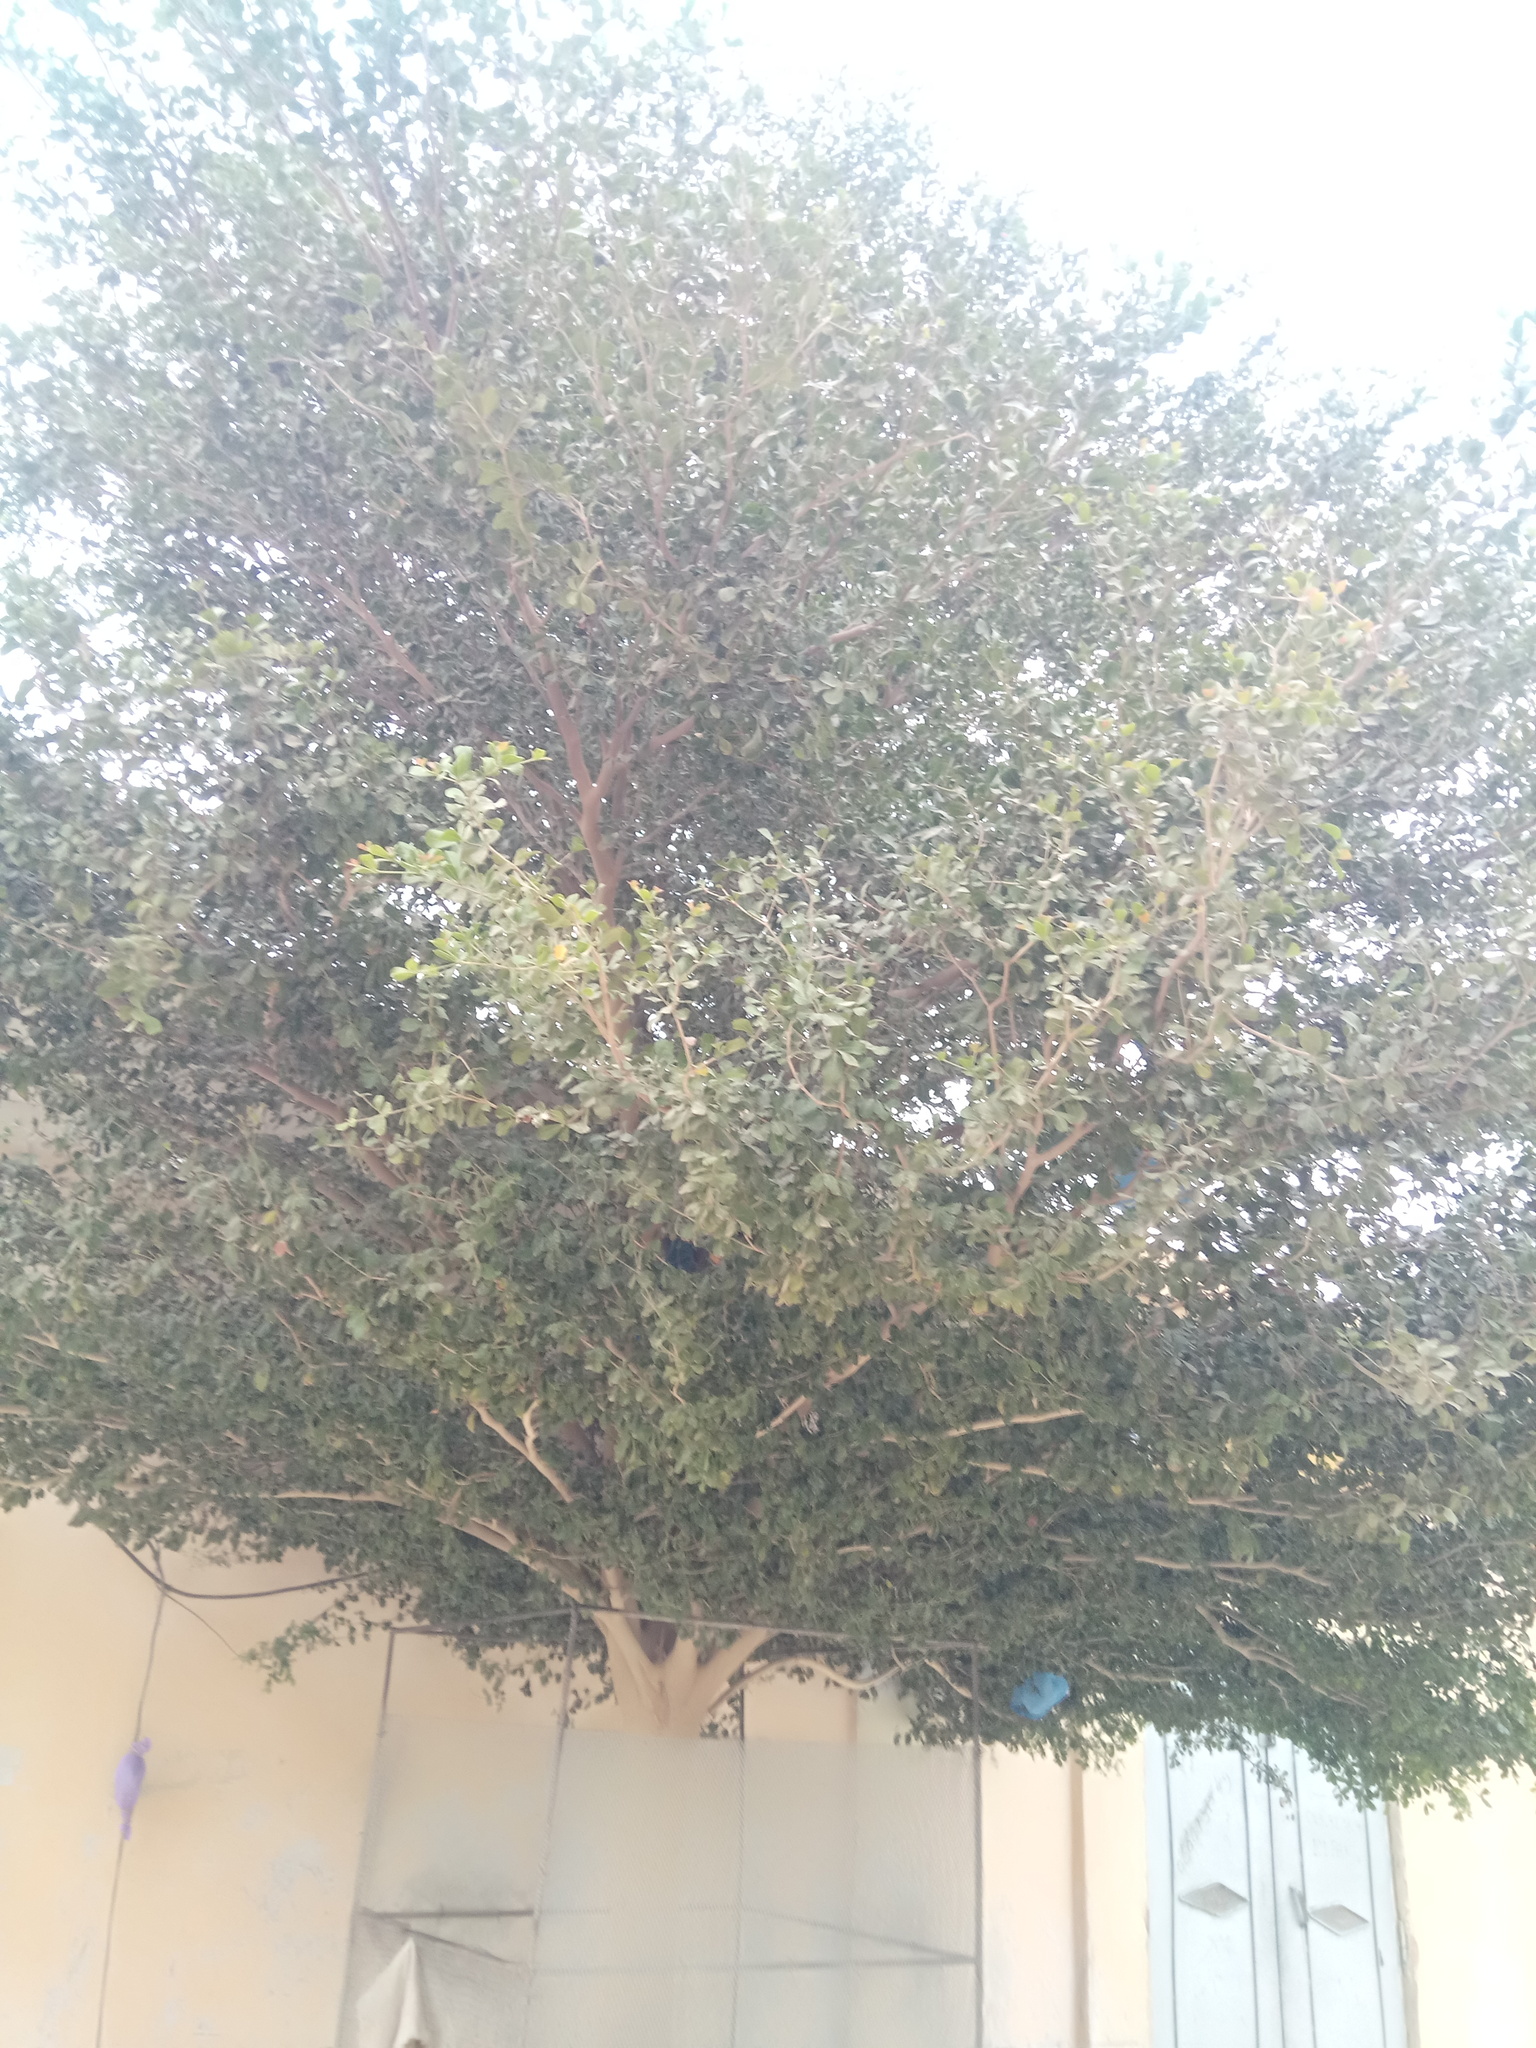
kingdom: Plantae
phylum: Tracheophyta
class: Magnoliopsida
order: Myrtales
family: Combretaceae
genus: Terminalia
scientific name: Terminalia neotaliala
